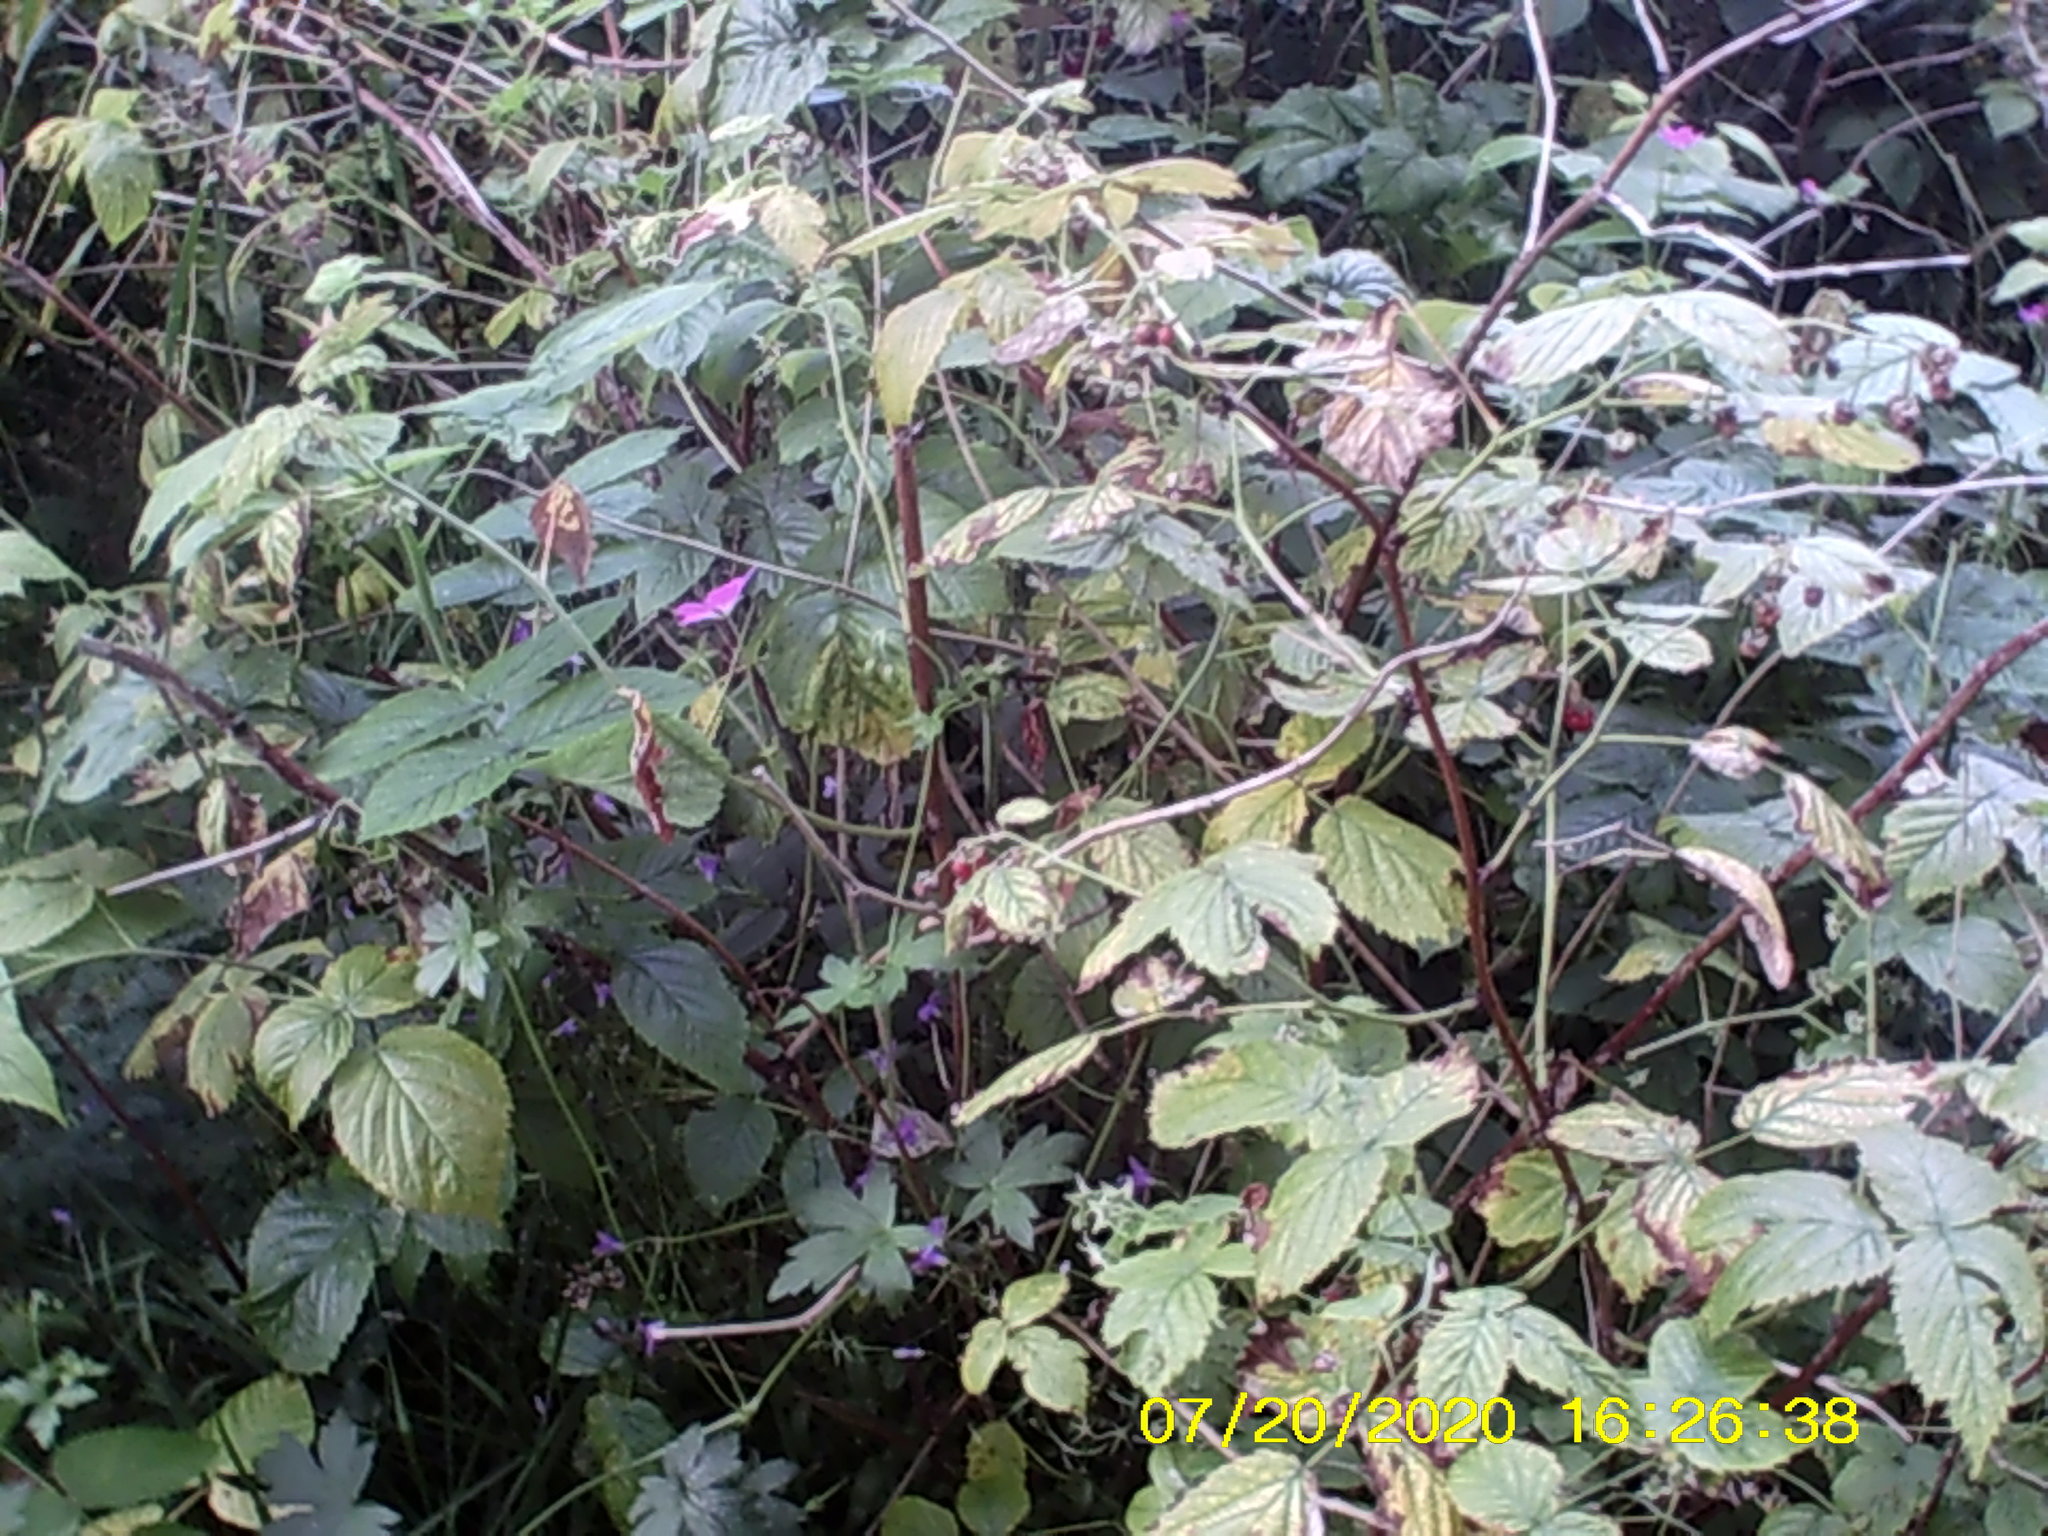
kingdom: Plantae
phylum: Tracheophyta
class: Magnoliopsida
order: Rosales
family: Rosaceae
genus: Rubus
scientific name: Rubus idaeus
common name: Raspberry
